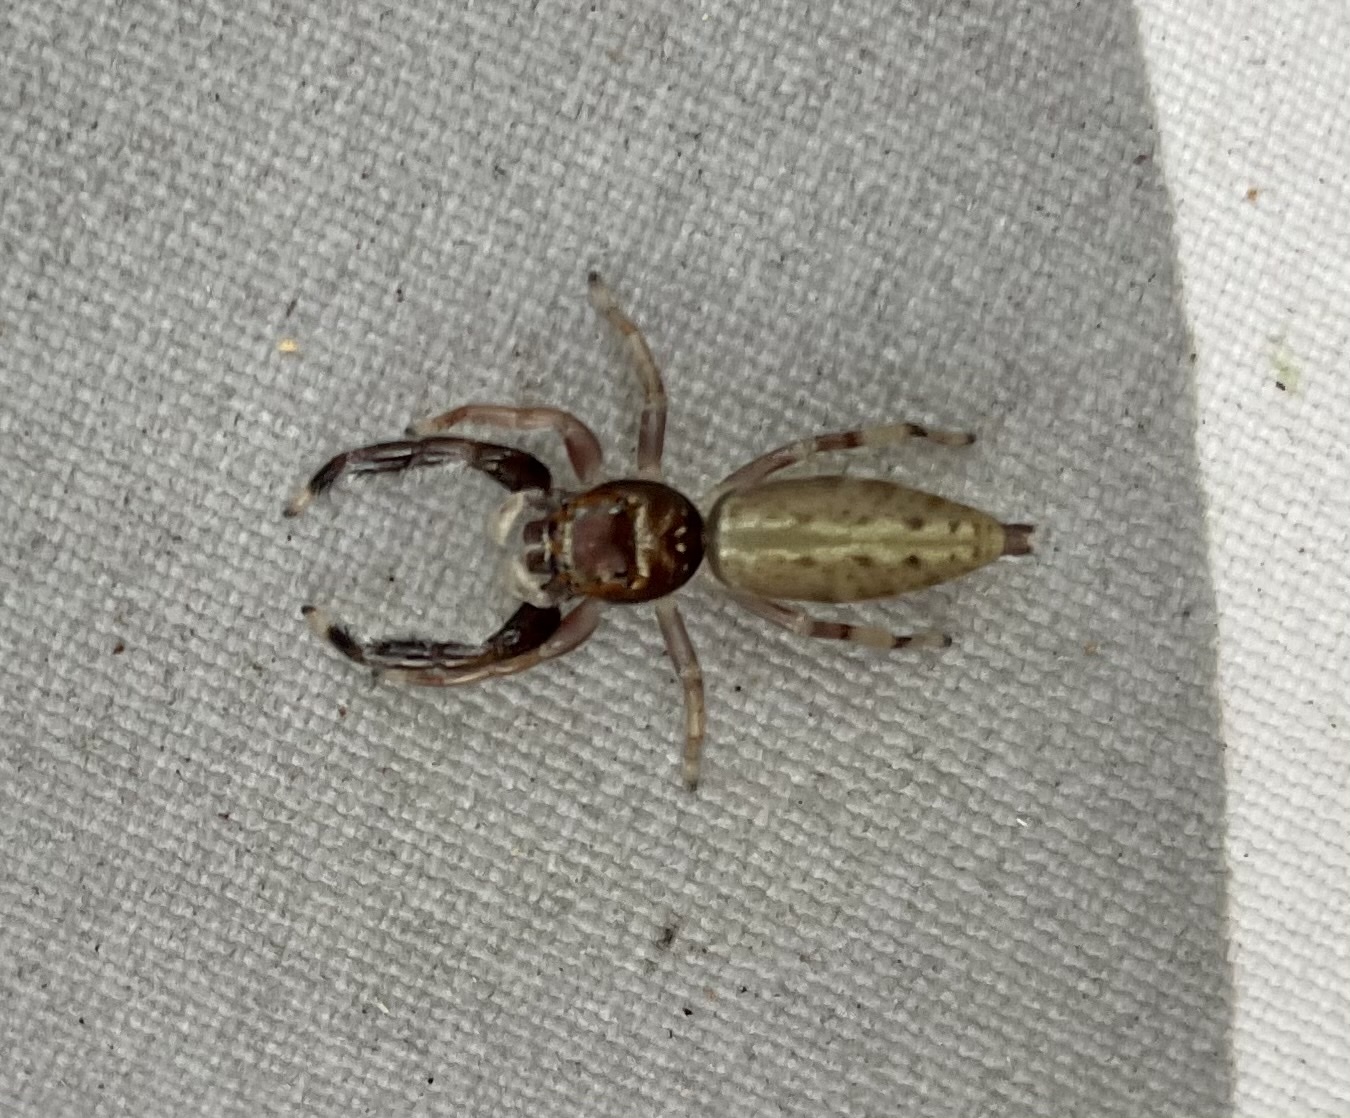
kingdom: Animalia
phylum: Arthropoda
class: Arachnida
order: Araneae
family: Salticidae
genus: Bavia
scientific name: Bavia aericeps
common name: Jumping spider
